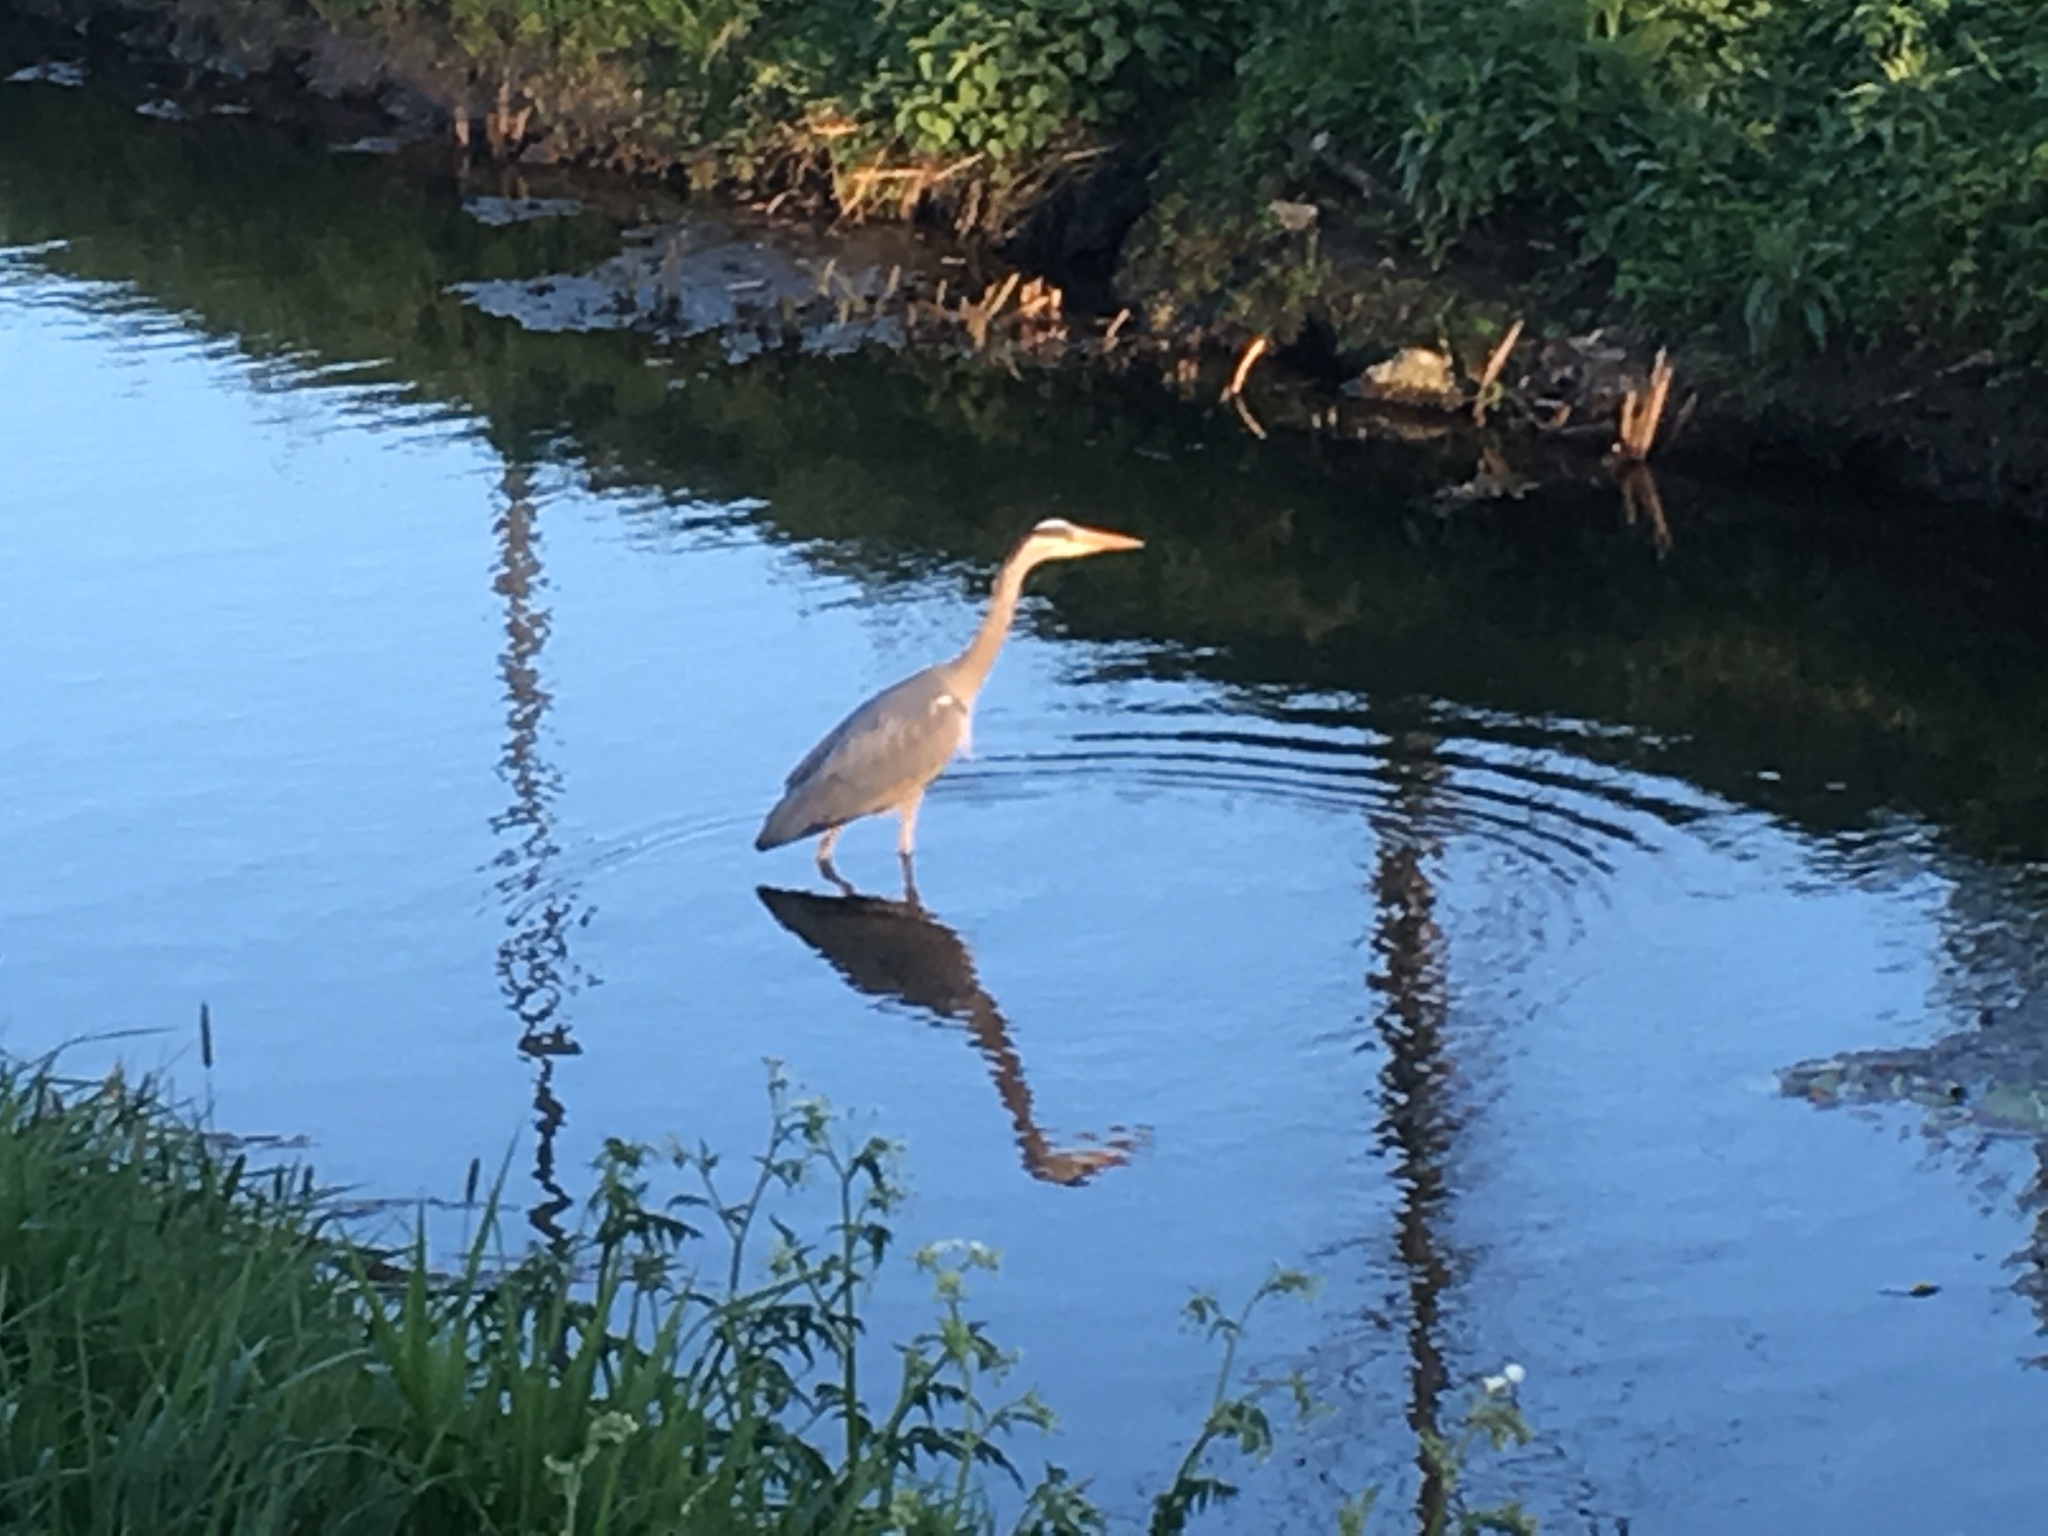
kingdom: Animalia
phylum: Chordata
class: Aves
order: Pelecaniformes
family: Ardeidae
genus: Ardea
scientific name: Ardea cinerea
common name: Grey heron
